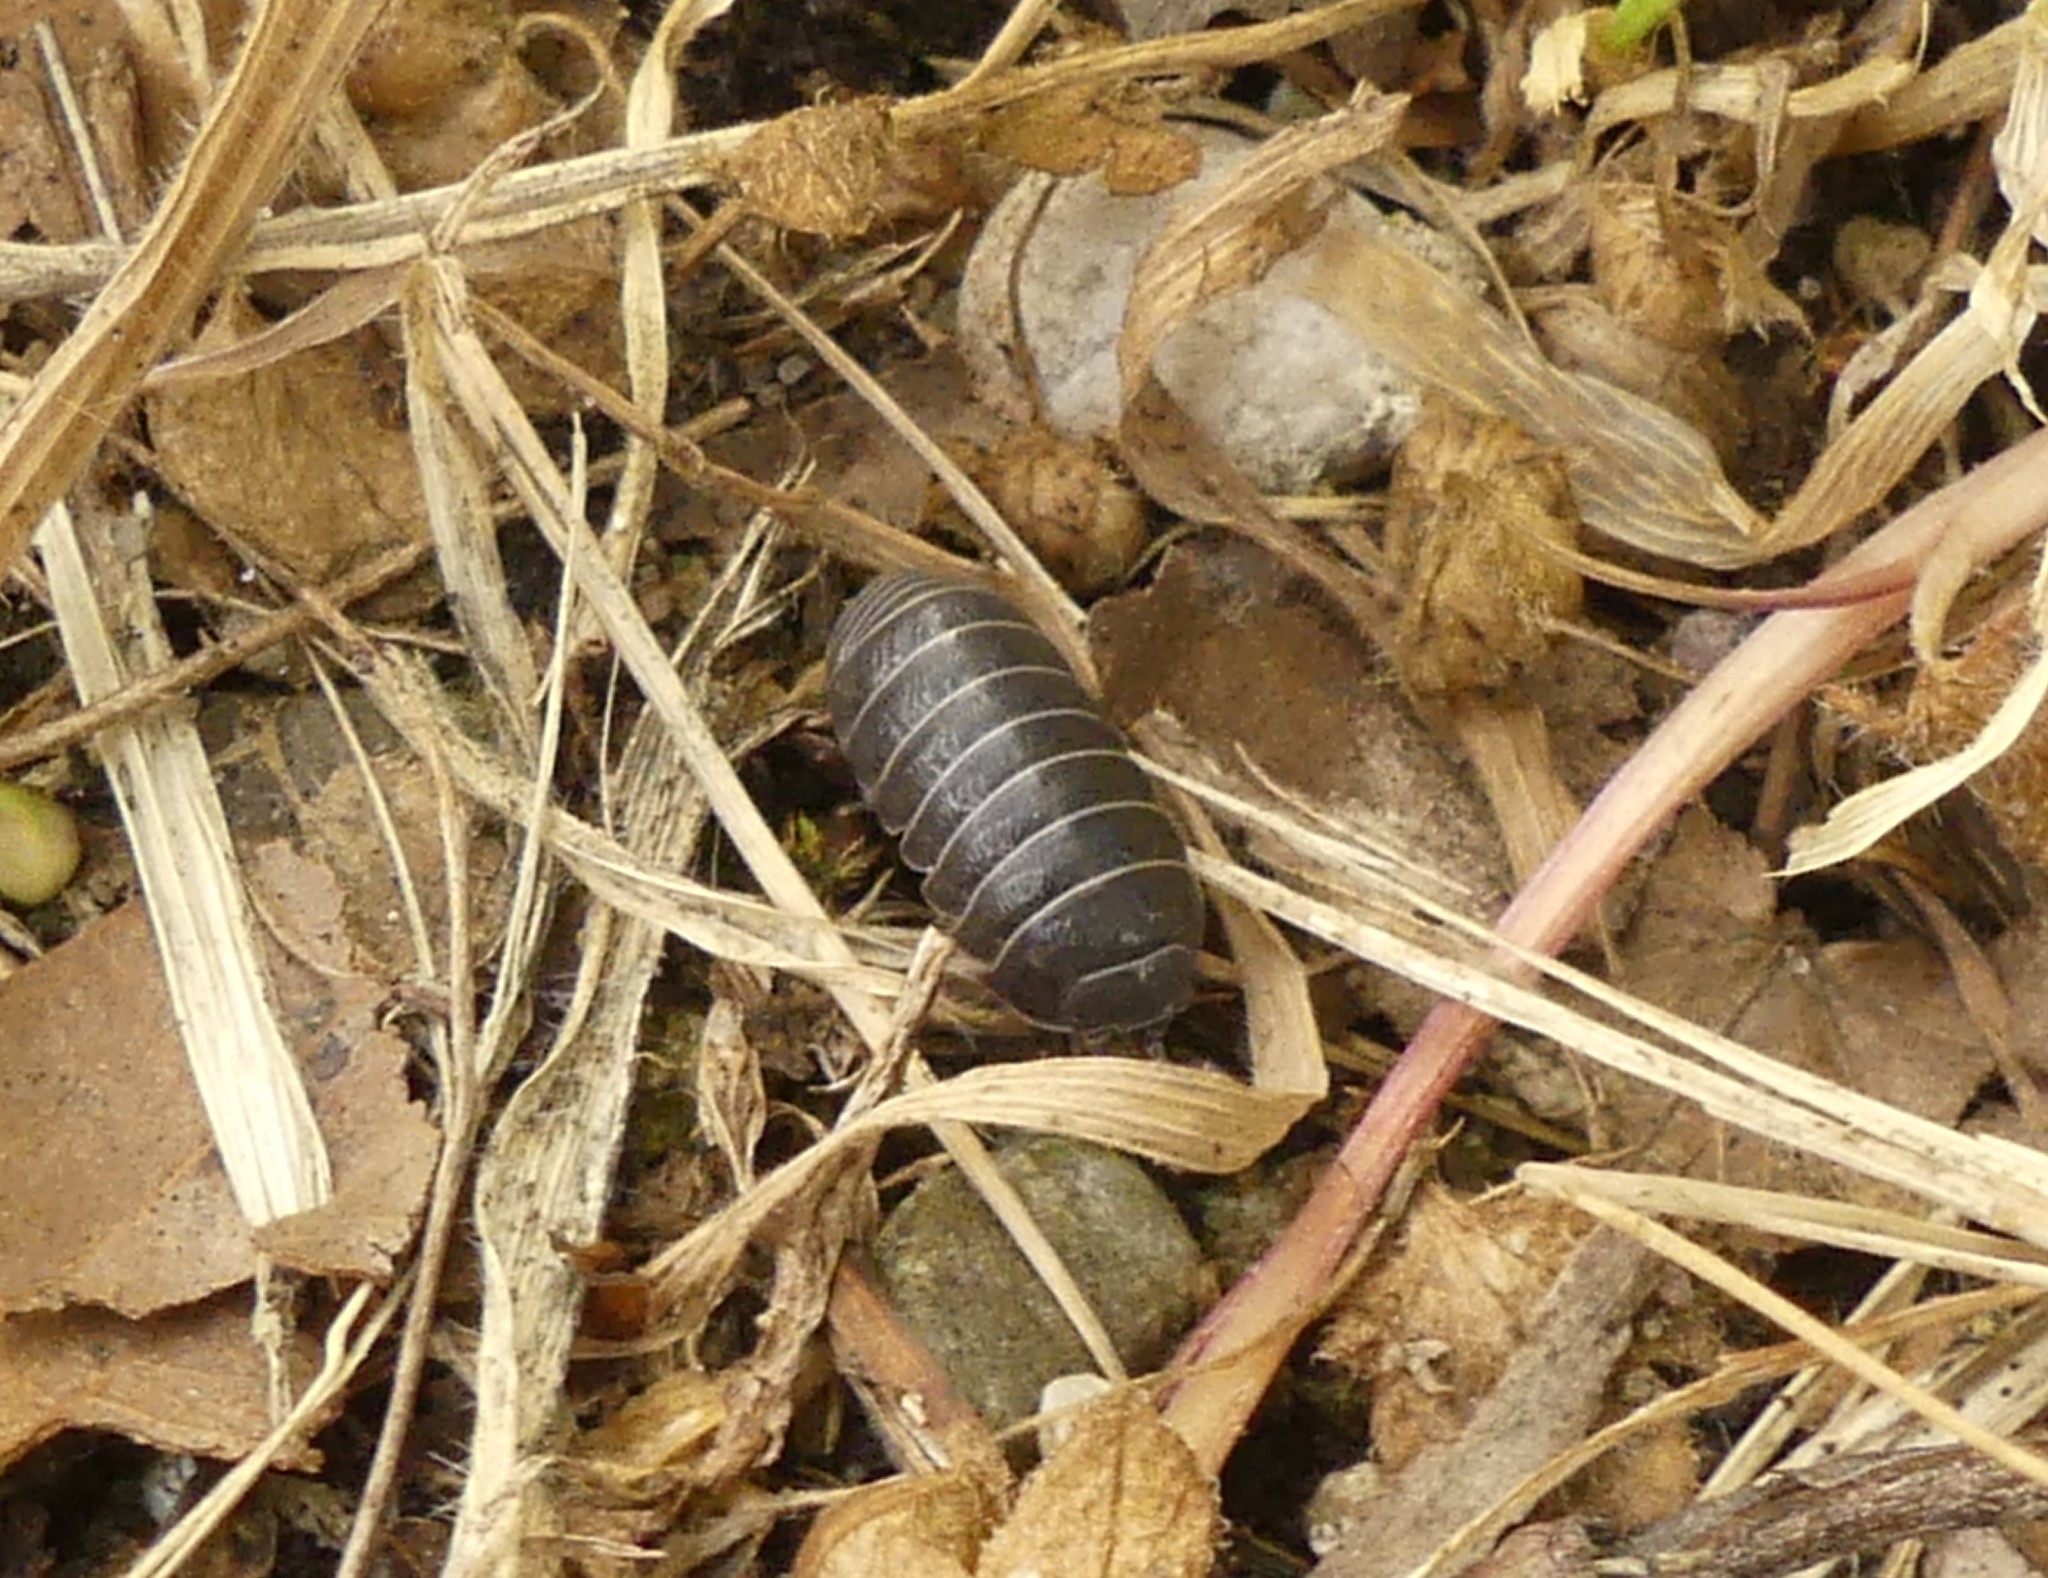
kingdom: Animalia
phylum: Arthropoda
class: Malacostraca
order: Isopoda
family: Armadillidiidae
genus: Armadillidium
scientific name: Armadillidium vulgare
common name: Common pill woodlouse
